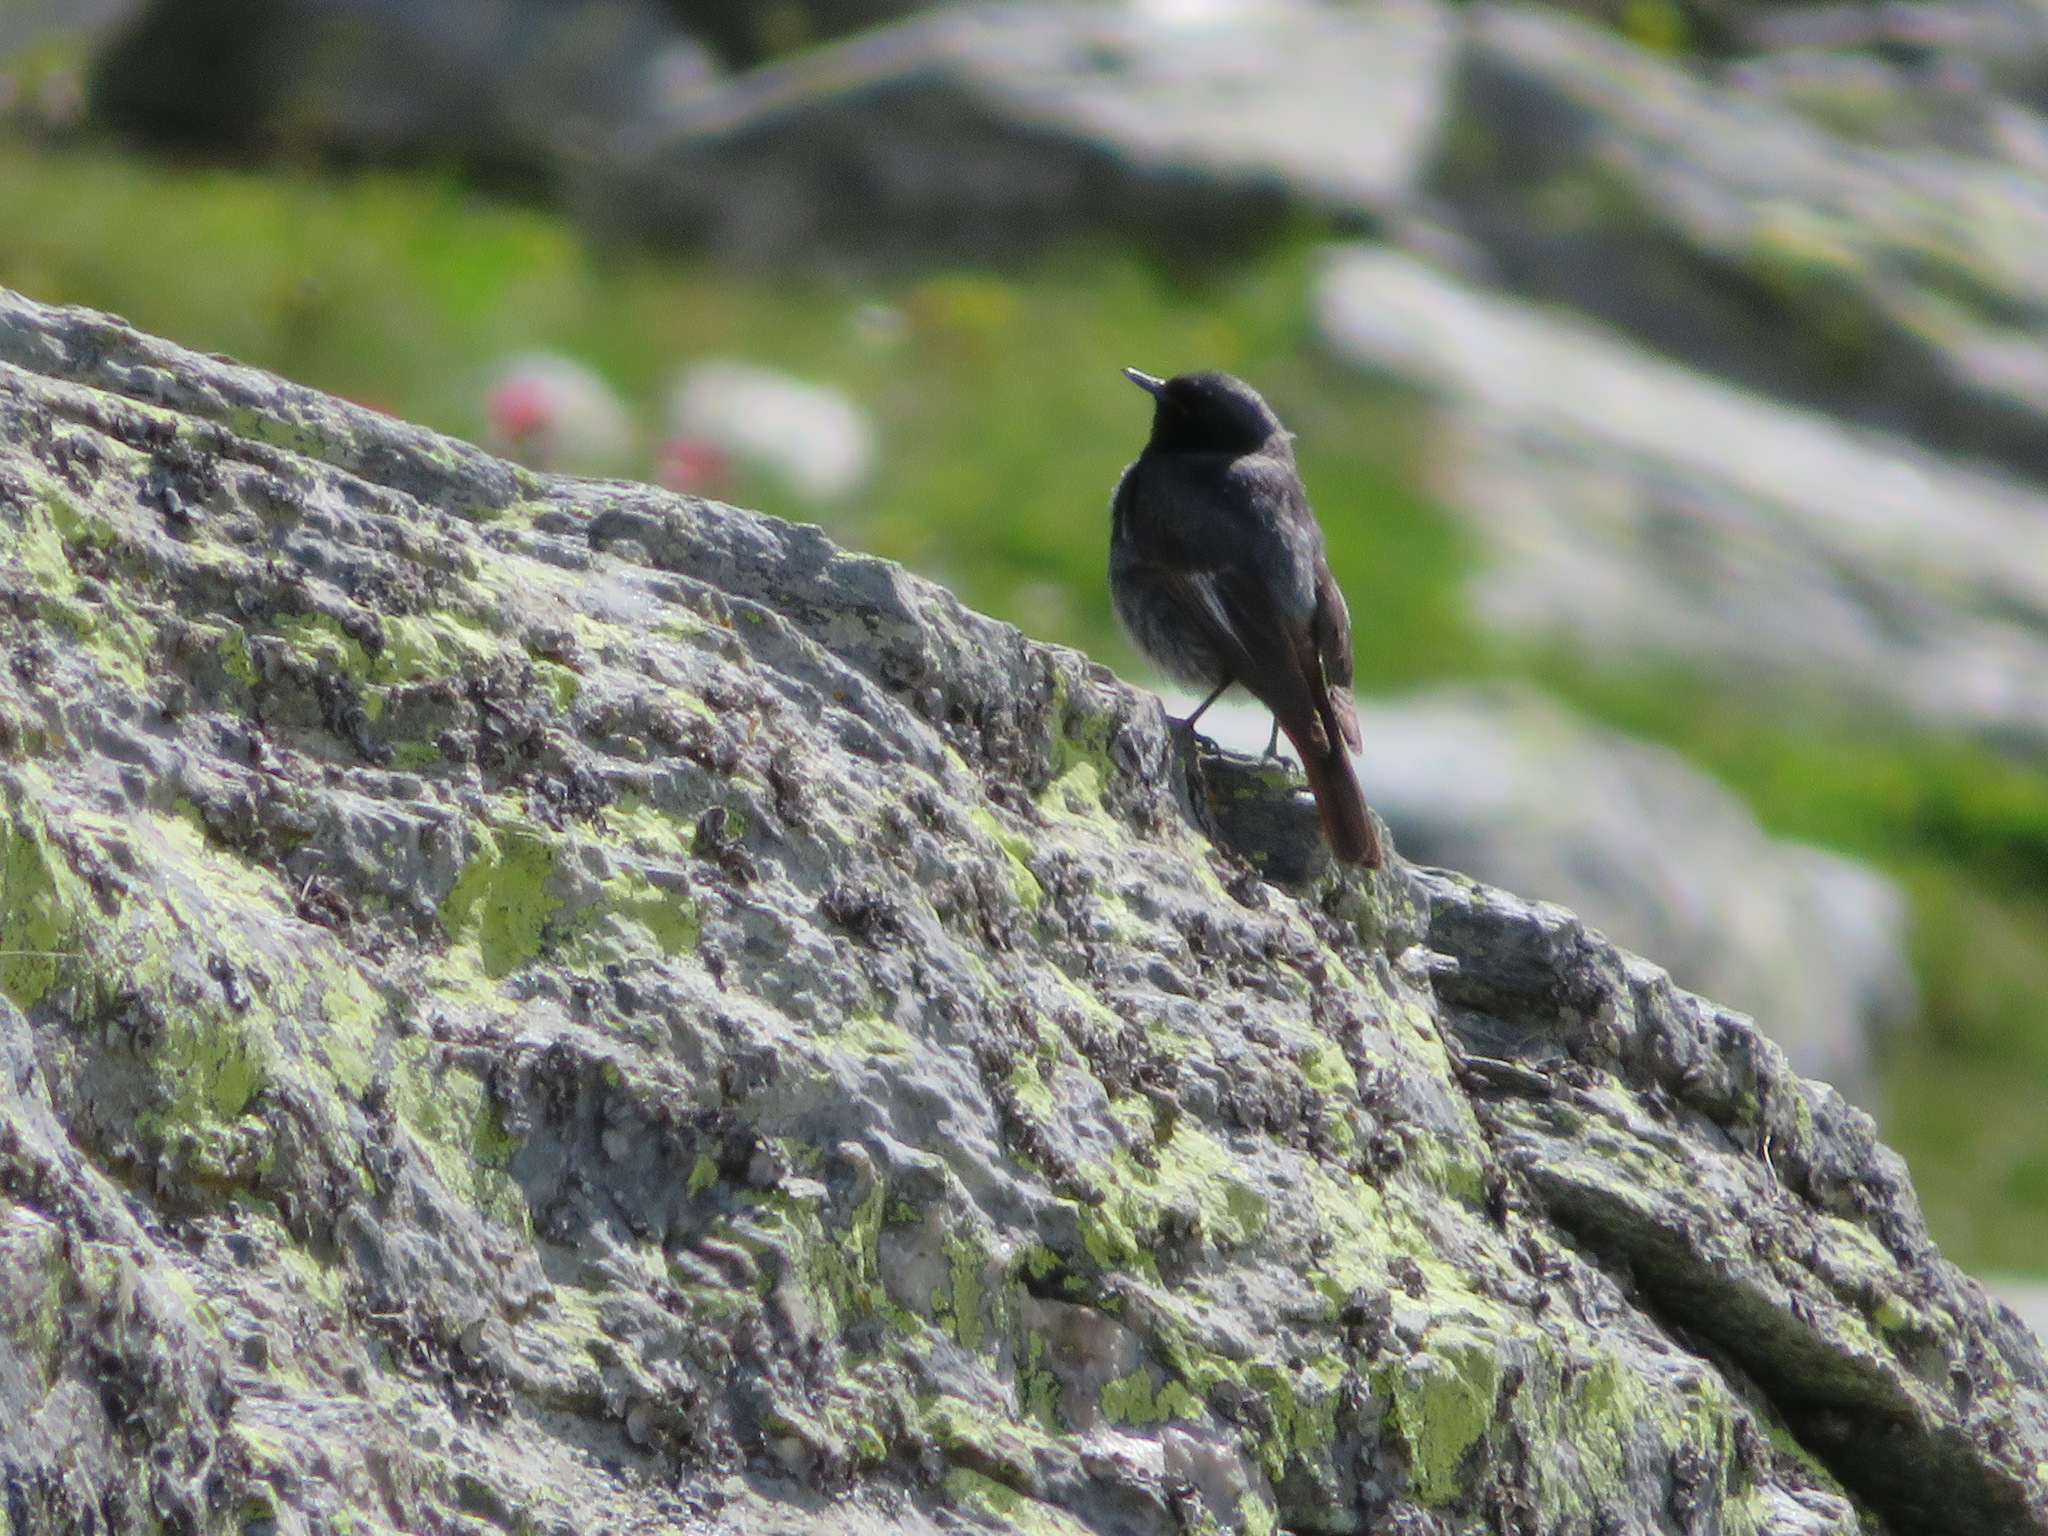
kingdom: Animalia
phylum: Chordata
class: Aves
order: Passeriformes
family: Muscicapidae
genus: Phoenicurus
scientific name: Phoenicurus ochruros
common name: Black redstart
